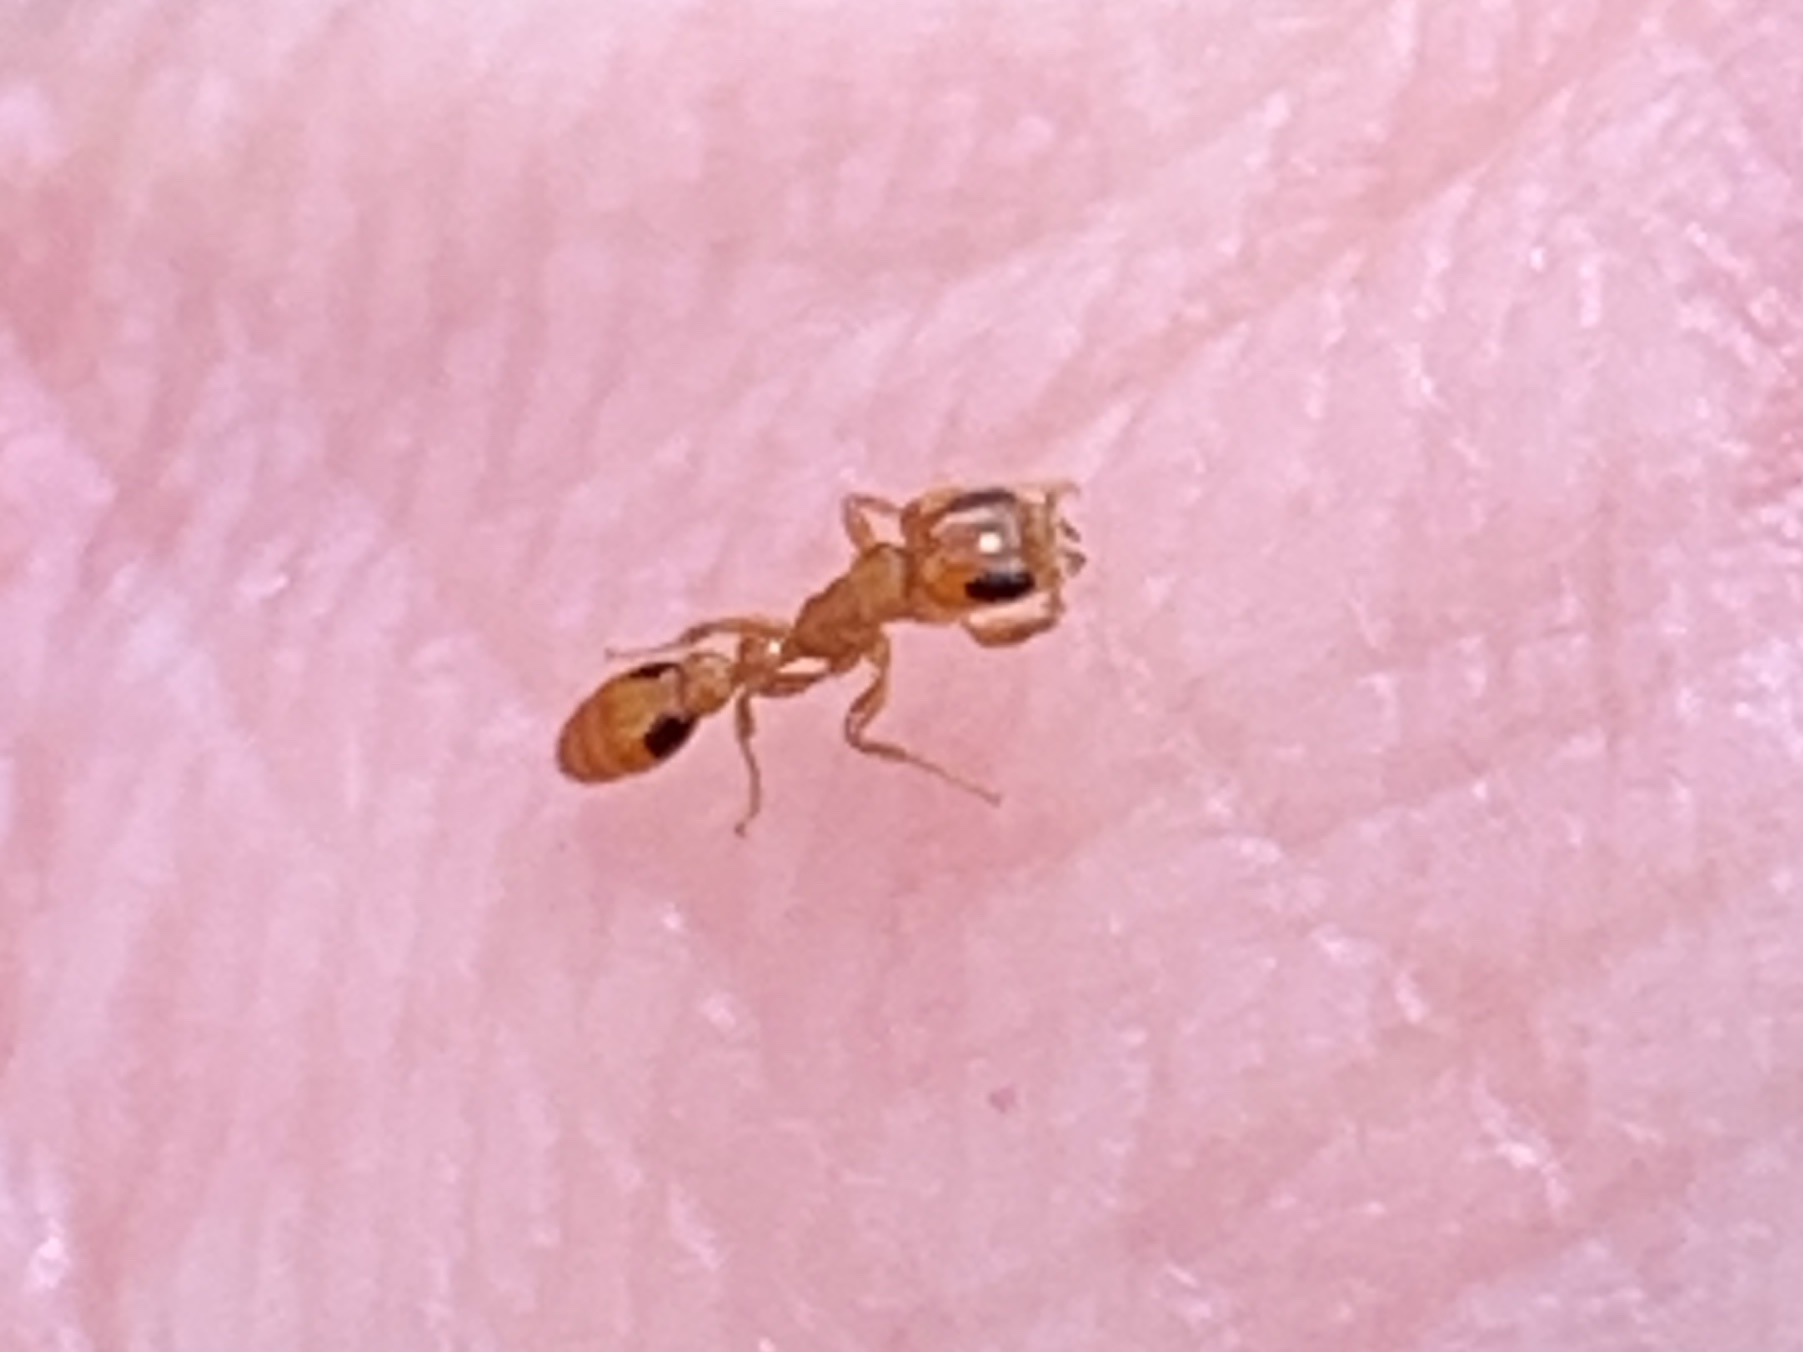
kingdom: Animalia
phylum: Arthropoda
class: Insecta
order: Hymenoptera
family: Formicidae
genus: Pseudomyrmex
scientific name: Pseudomyrmex simplex
